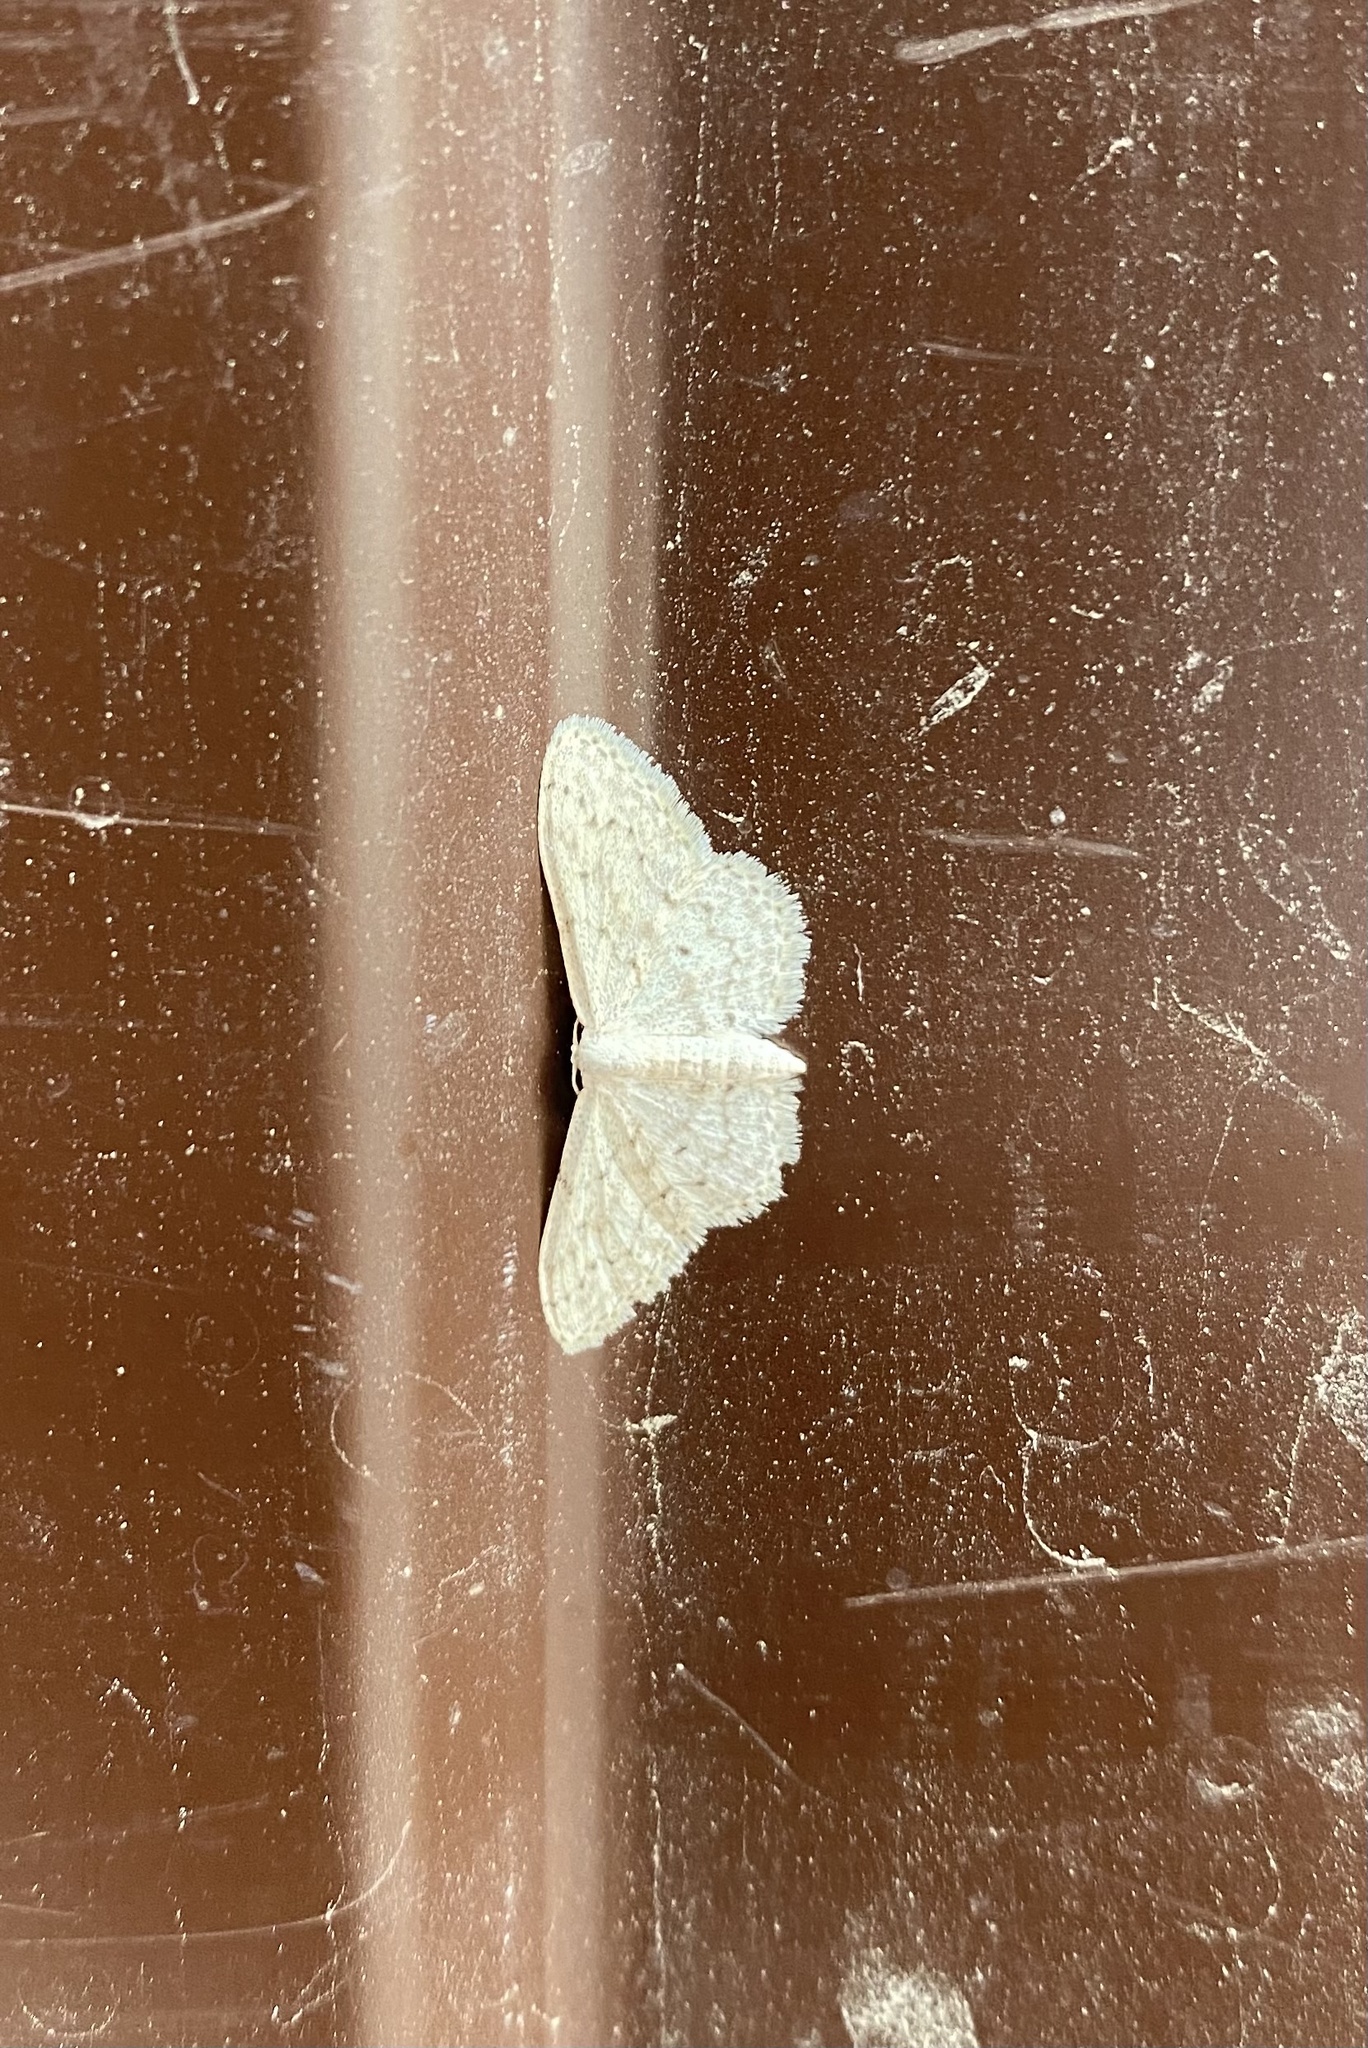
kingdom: Animalia
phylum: Arthropoda
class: Insecta
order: Lepidoptera
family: Geometridae
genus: Idaea
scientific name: Idaea seriata
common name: Small dusty wave
